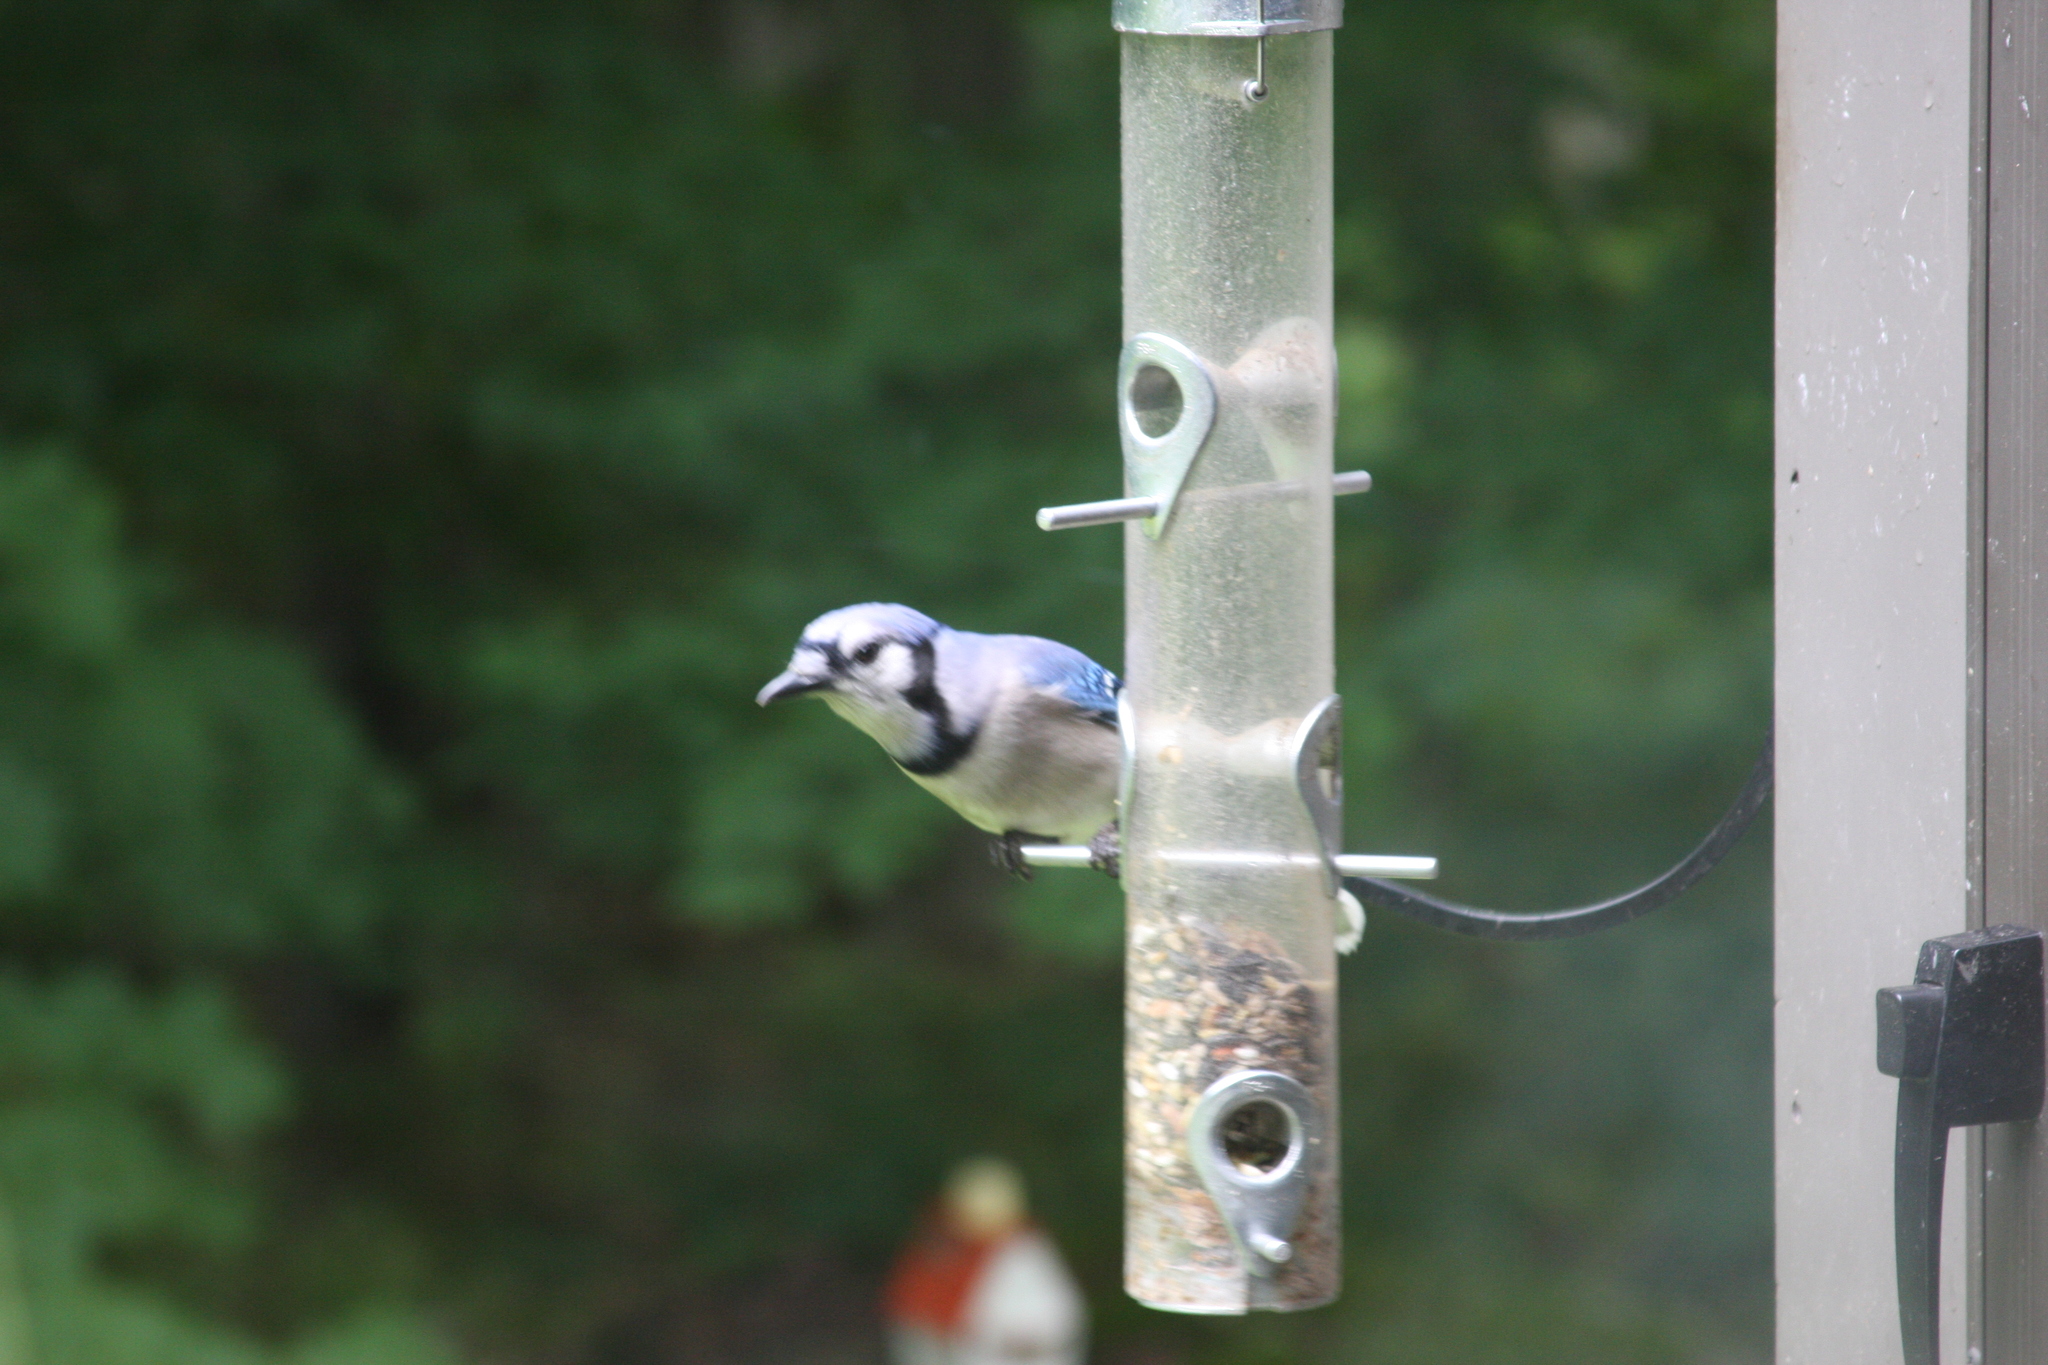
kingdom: Animalia
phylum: Chordata
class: Aves
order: Passeriformes
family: Corvidae
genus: Cyanocitta
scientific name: Cyanocitta cristata
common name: Blue jay
